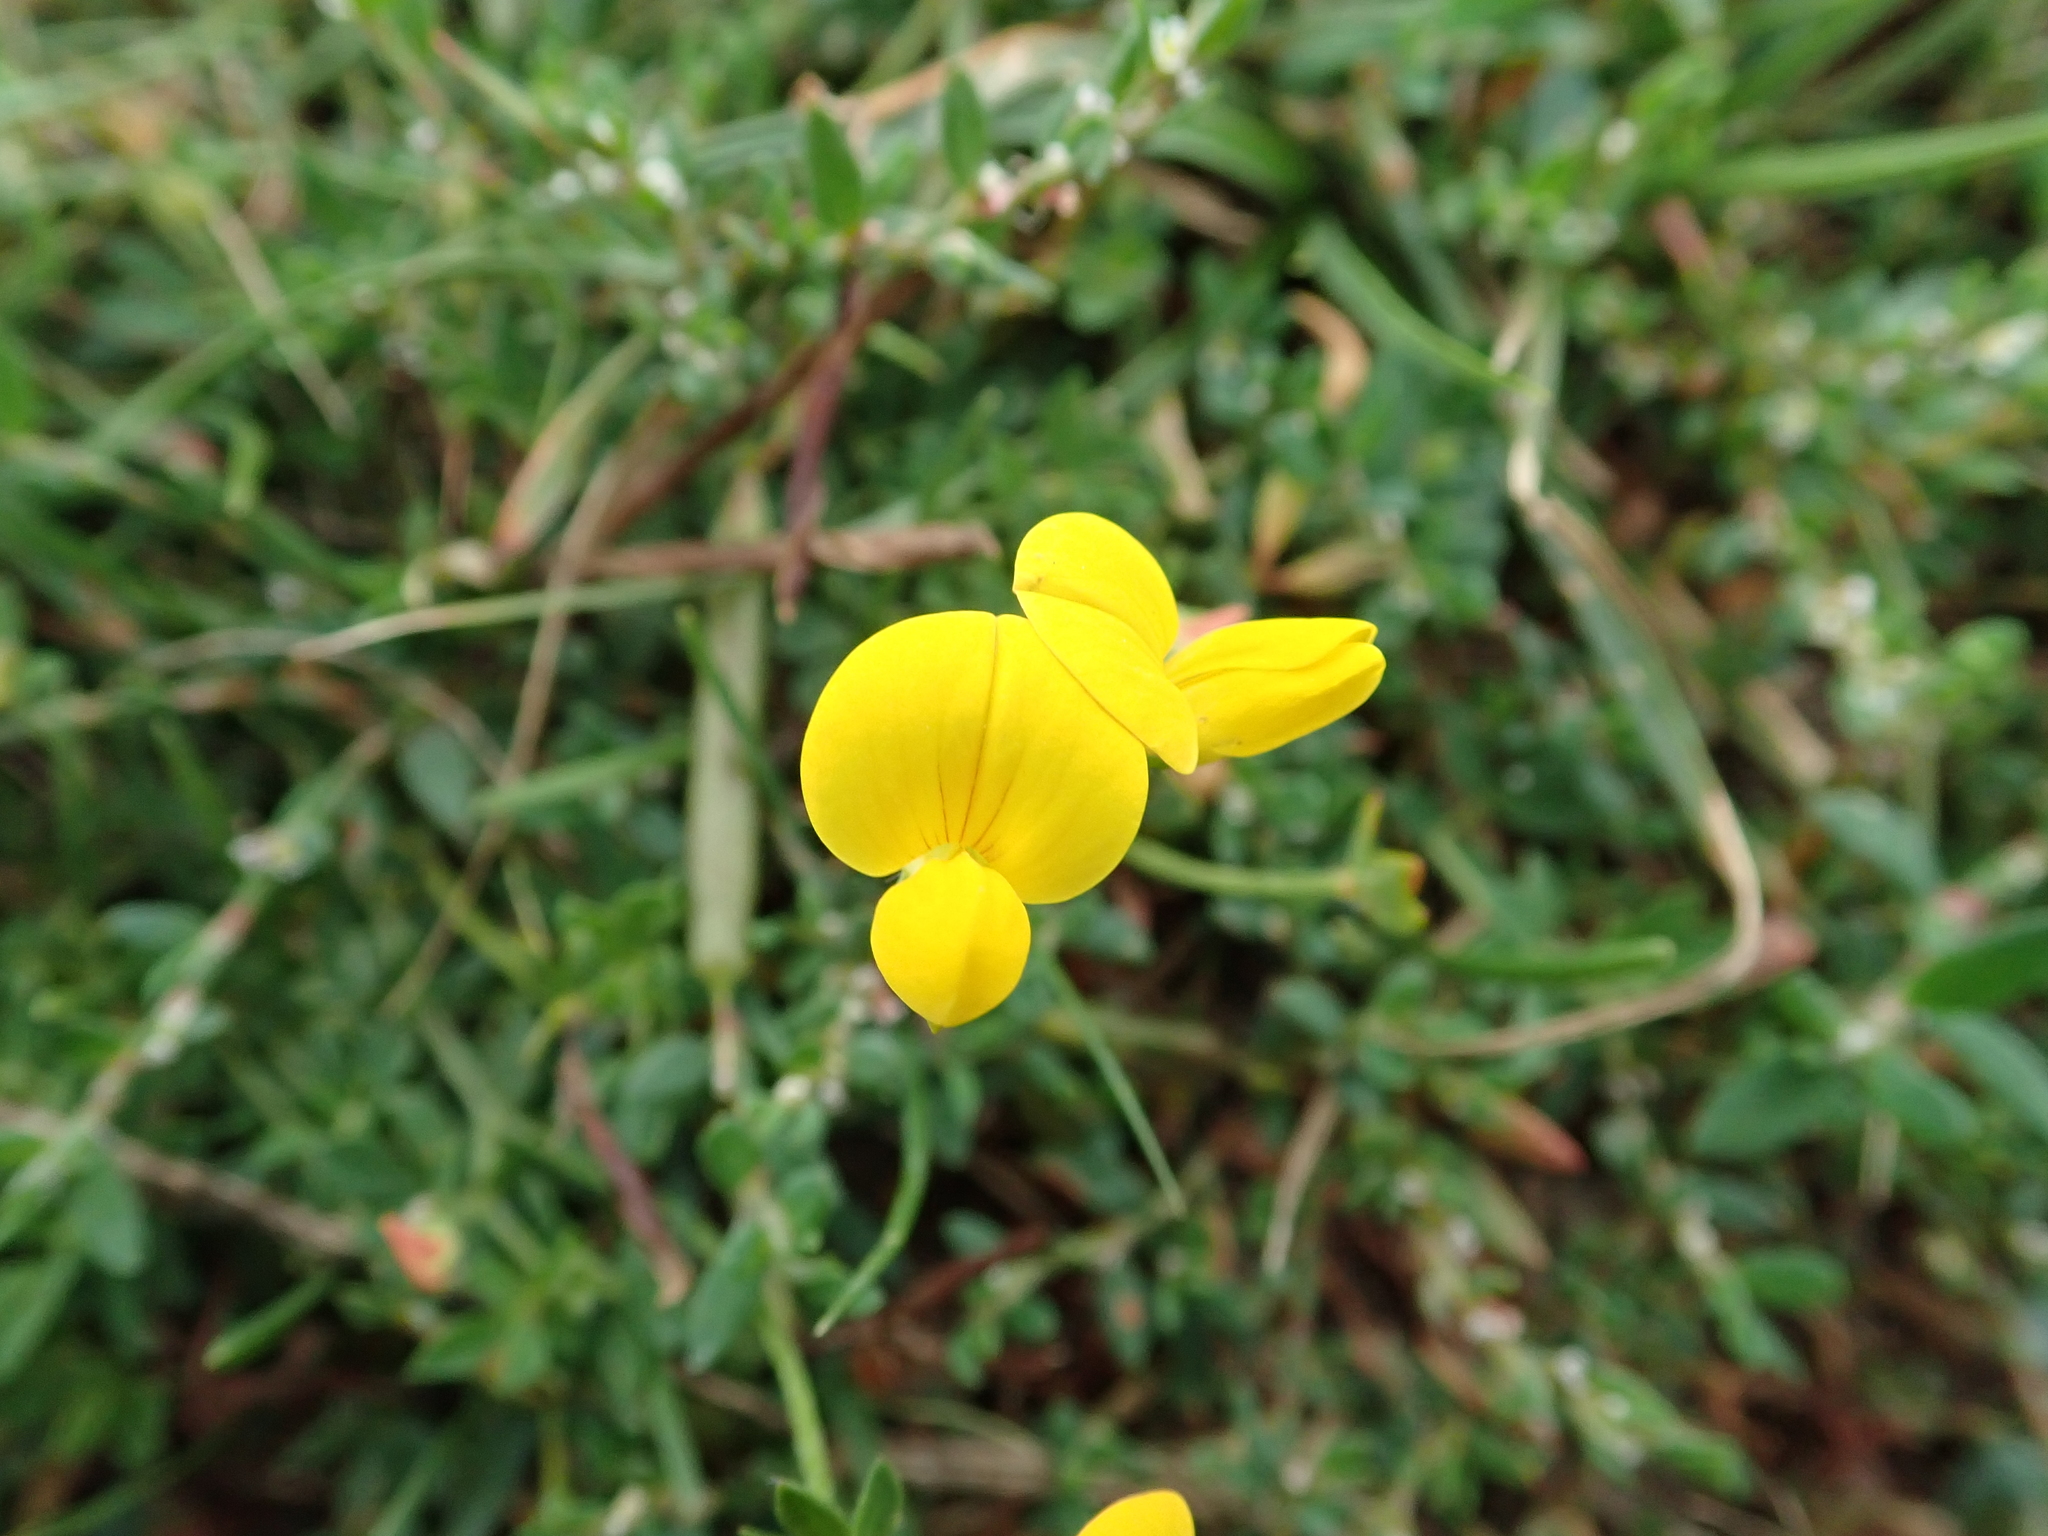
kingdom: Plantae
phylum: Tracheophyta
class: Magnoliopsida
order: Fabales
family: Fabaceae
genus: Lotus
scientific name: Lotus corniculatus
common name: Common bird's-foot-trefoil
